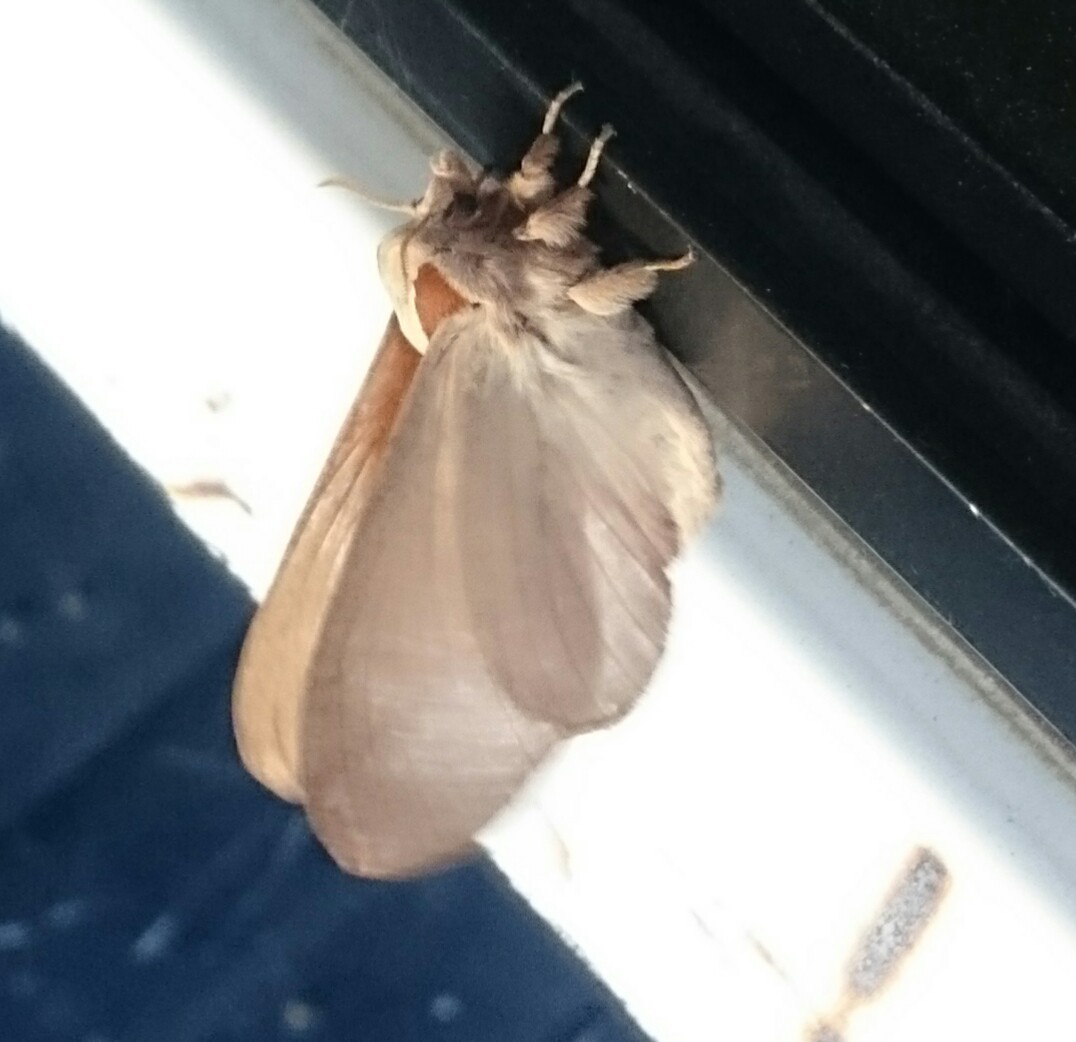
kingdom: Animalia
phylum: Arthropoda
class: Insecta
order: Lepidoptera
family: Lasiocampidae
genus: Stoermeriana
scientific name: Stoermeriana scapulosa
